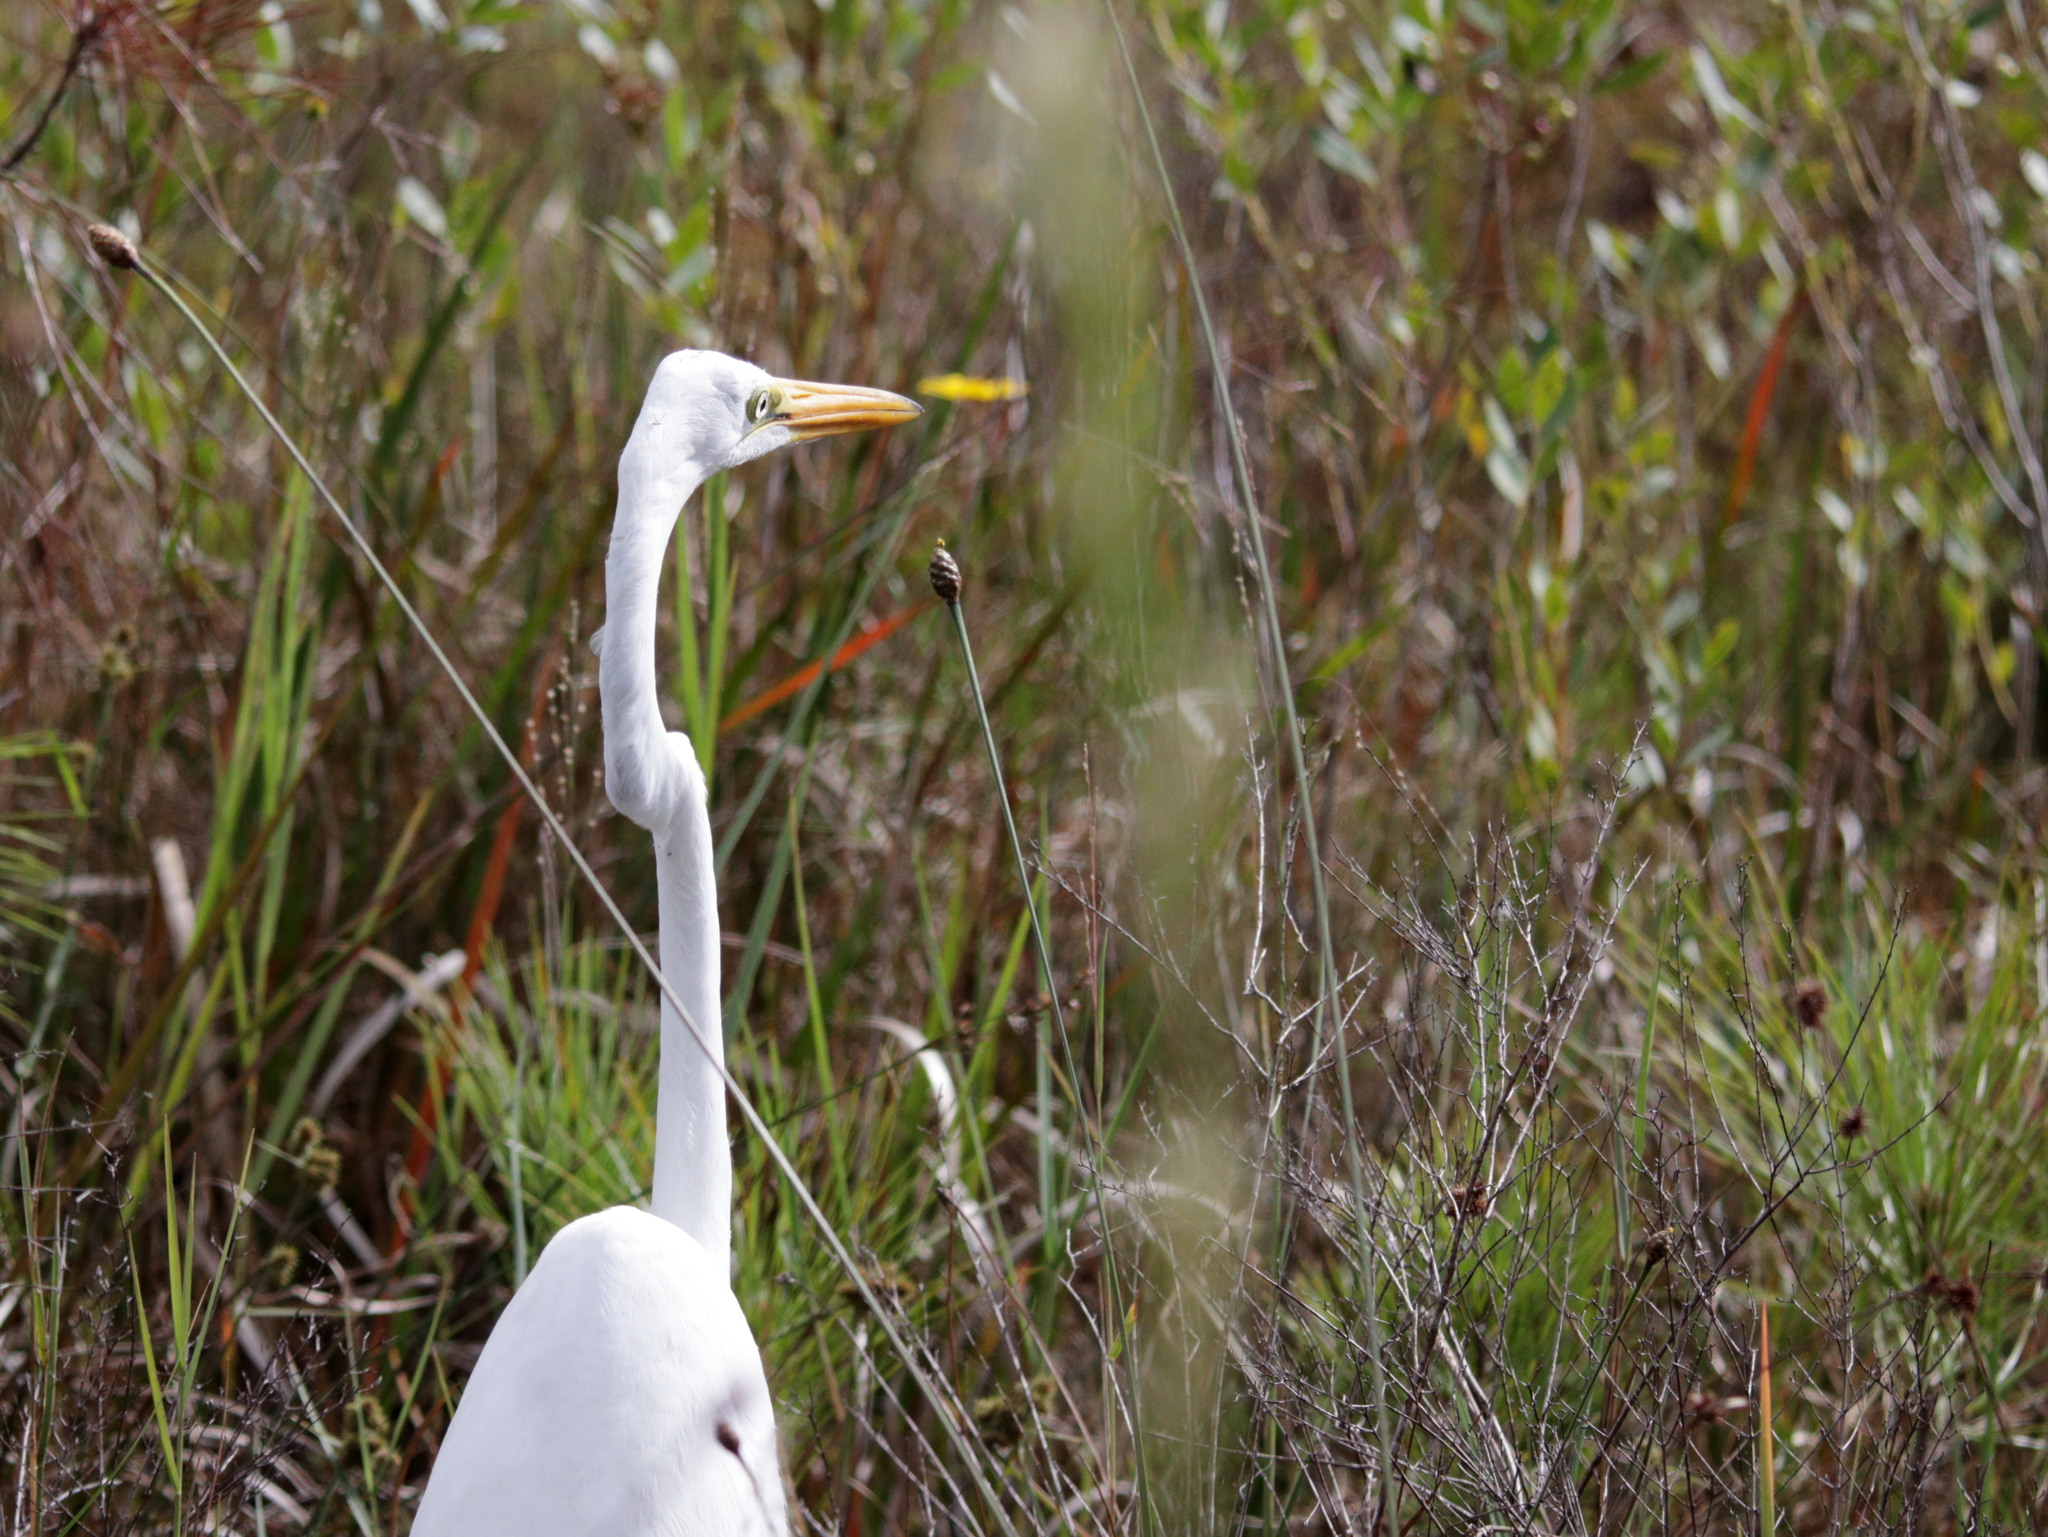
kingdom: Animalia
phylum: Chordata
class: Aves
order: Pelecaniformes
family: Ardeidae
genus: Ardea
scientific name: Ardea alba
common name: Great egret
